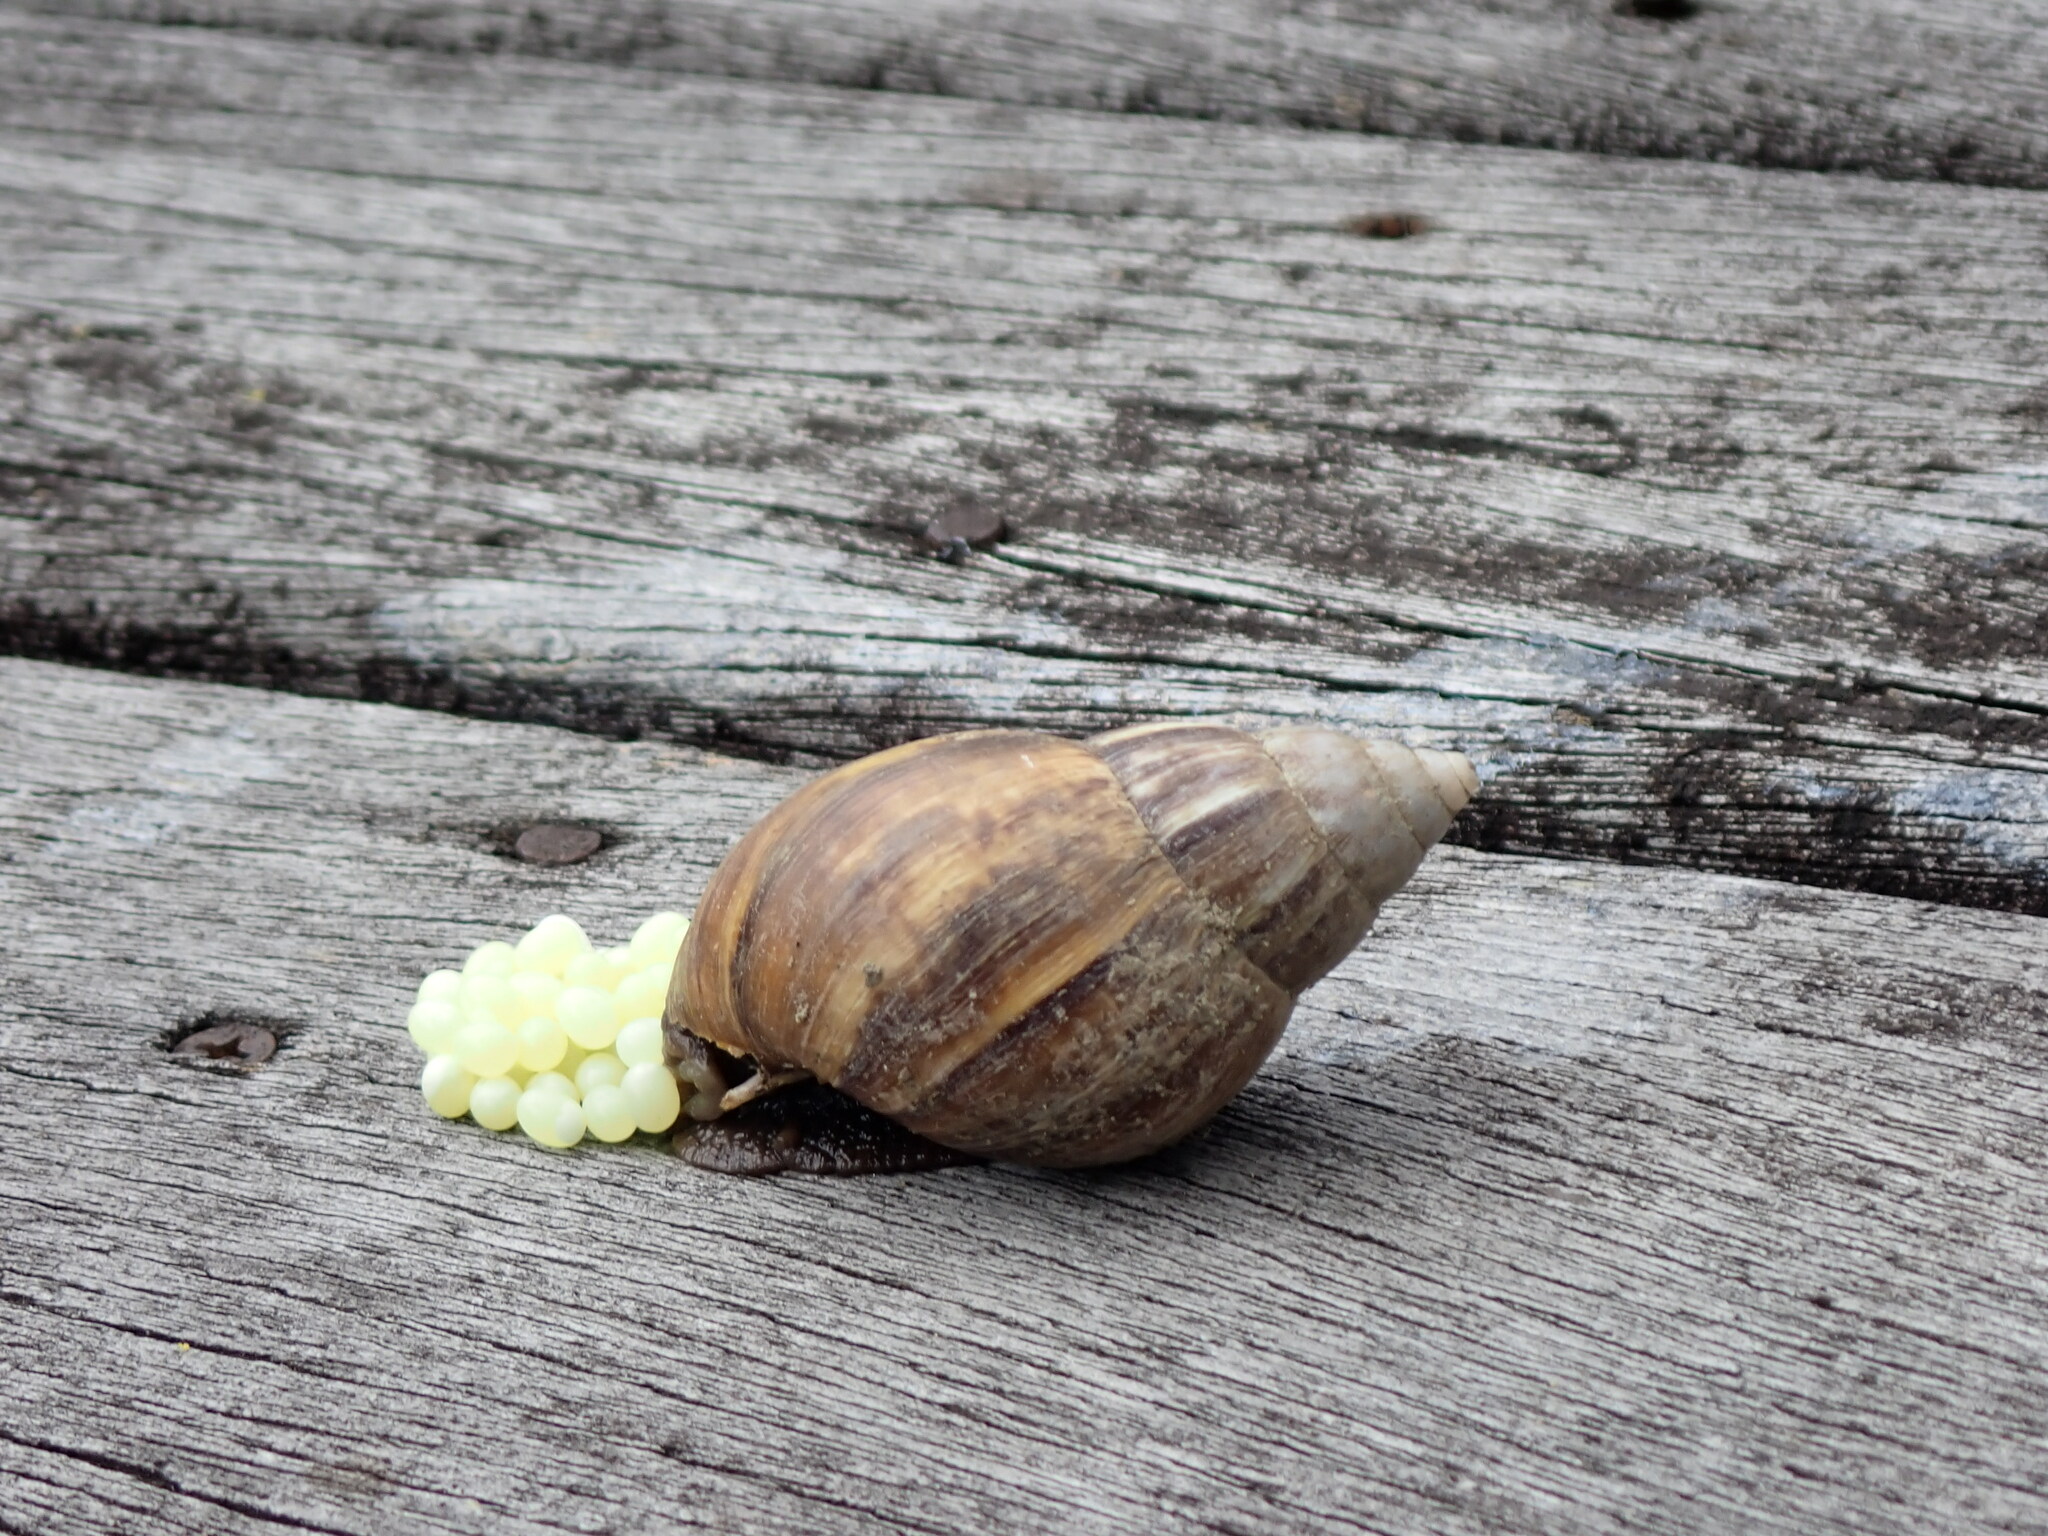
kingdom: Animalia
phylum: Mollusca
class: Gastropoda
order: Stylommatophora
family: Achatinidae
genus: Lissachatina
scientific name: Lissachatina fulica
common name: Giant african snail
